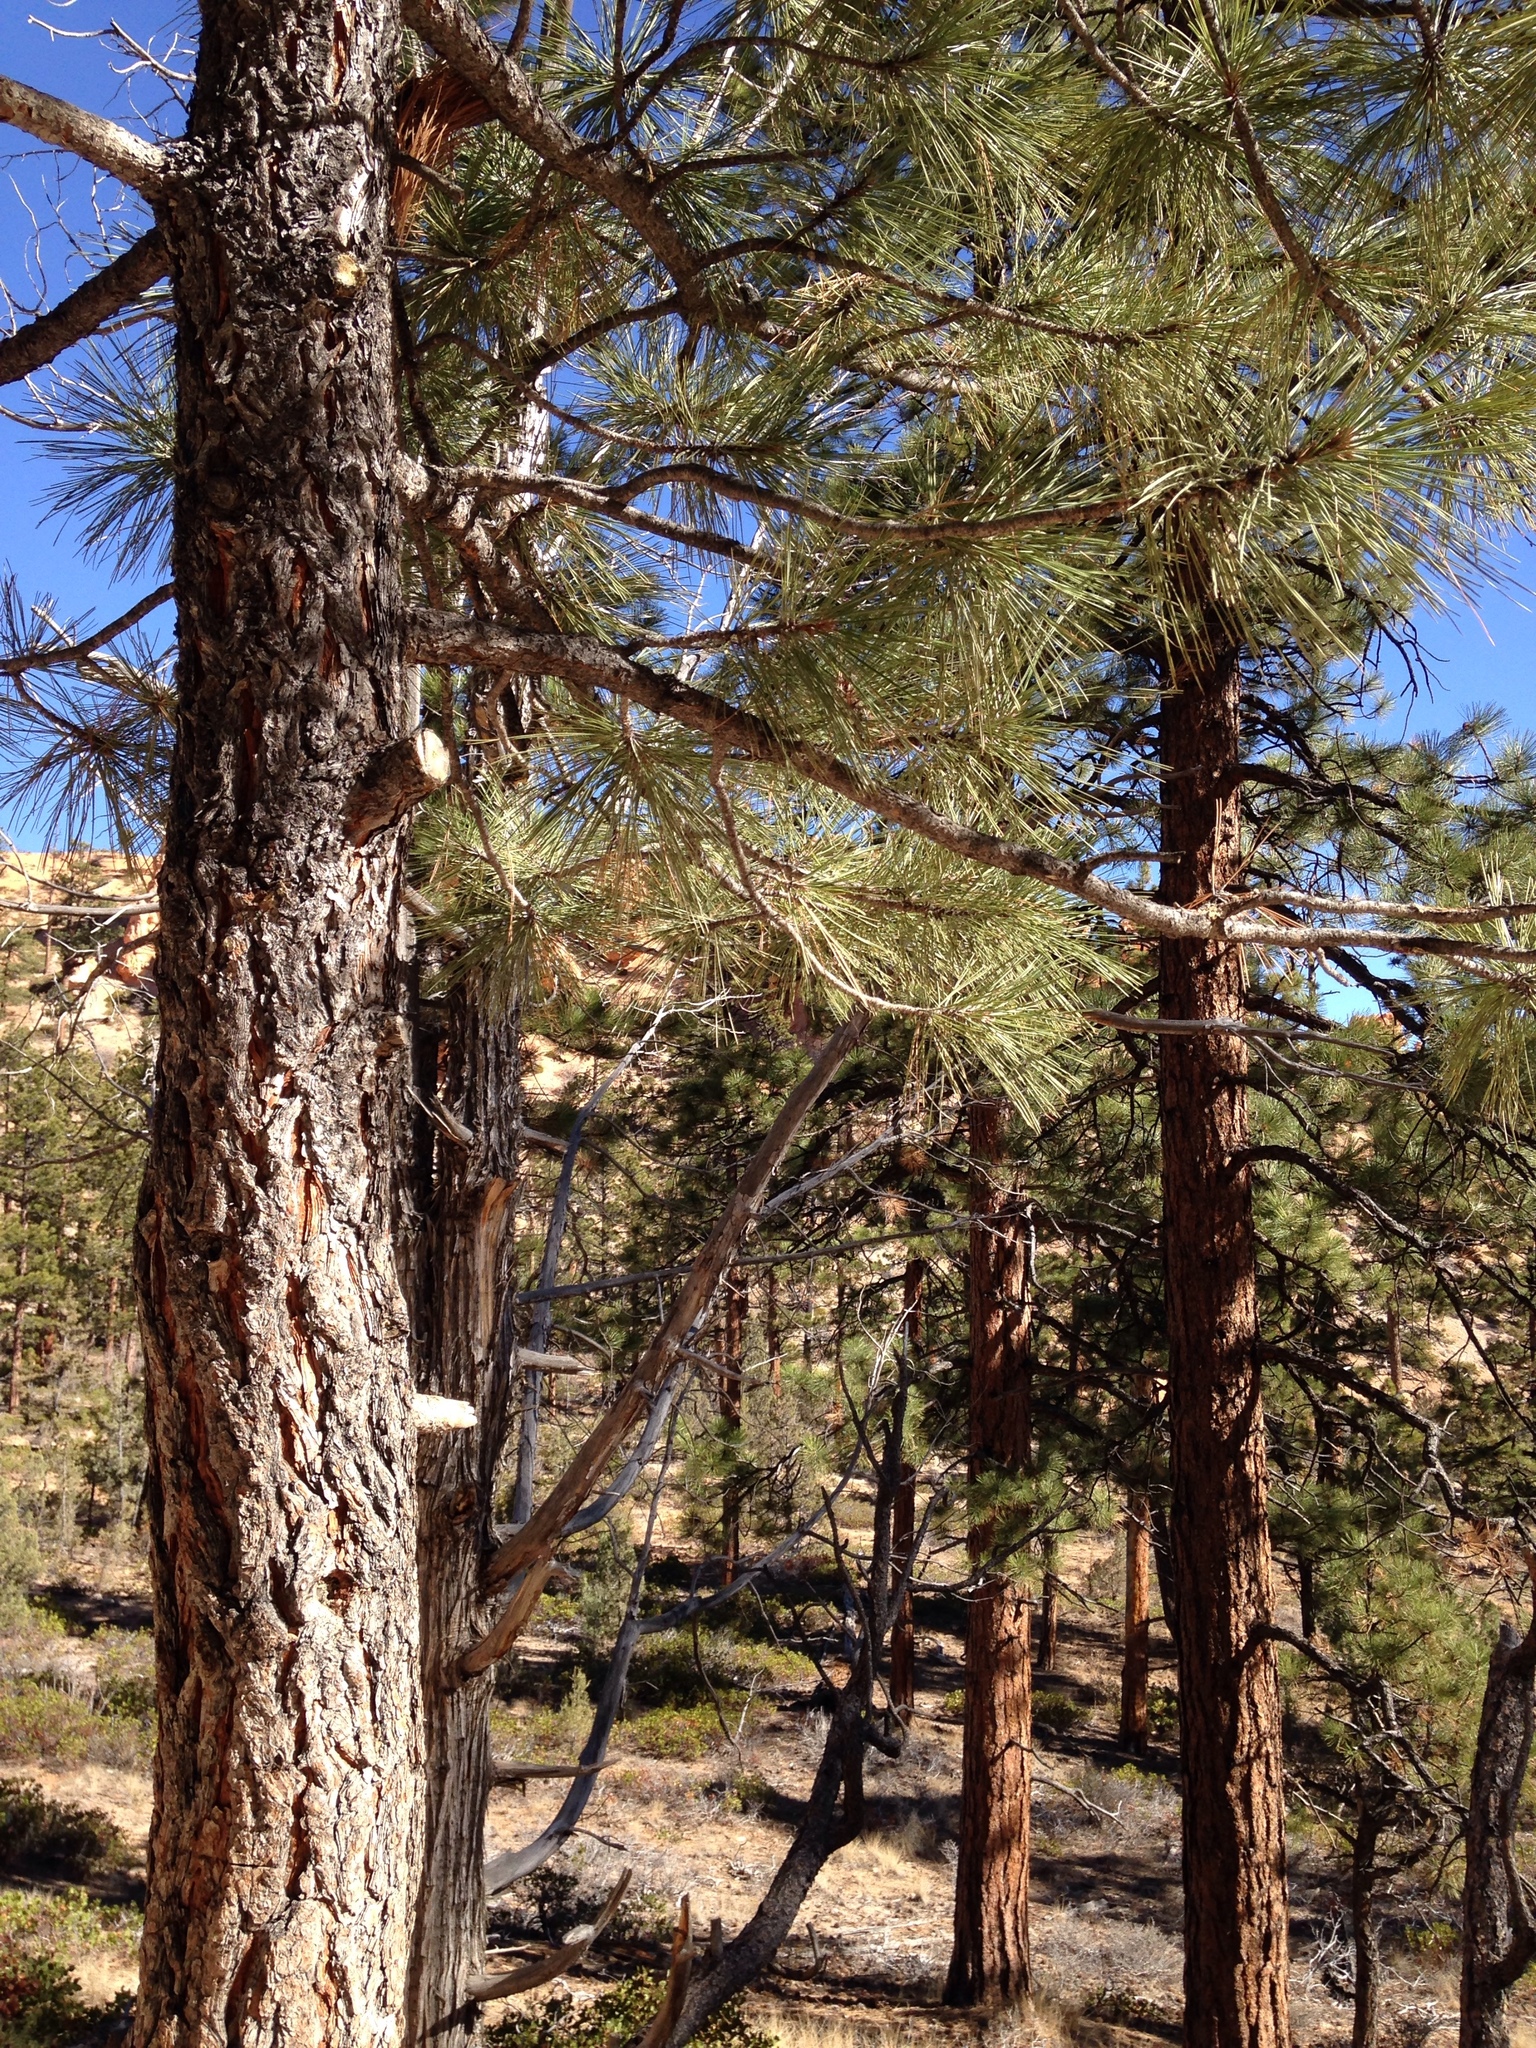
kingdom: Plantae
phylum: Tracheophyta
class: Pinopsida
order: Pinales
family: Pinaceae
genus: Pinus
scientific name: Pinus ponderosa
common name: Western yellow-pine
